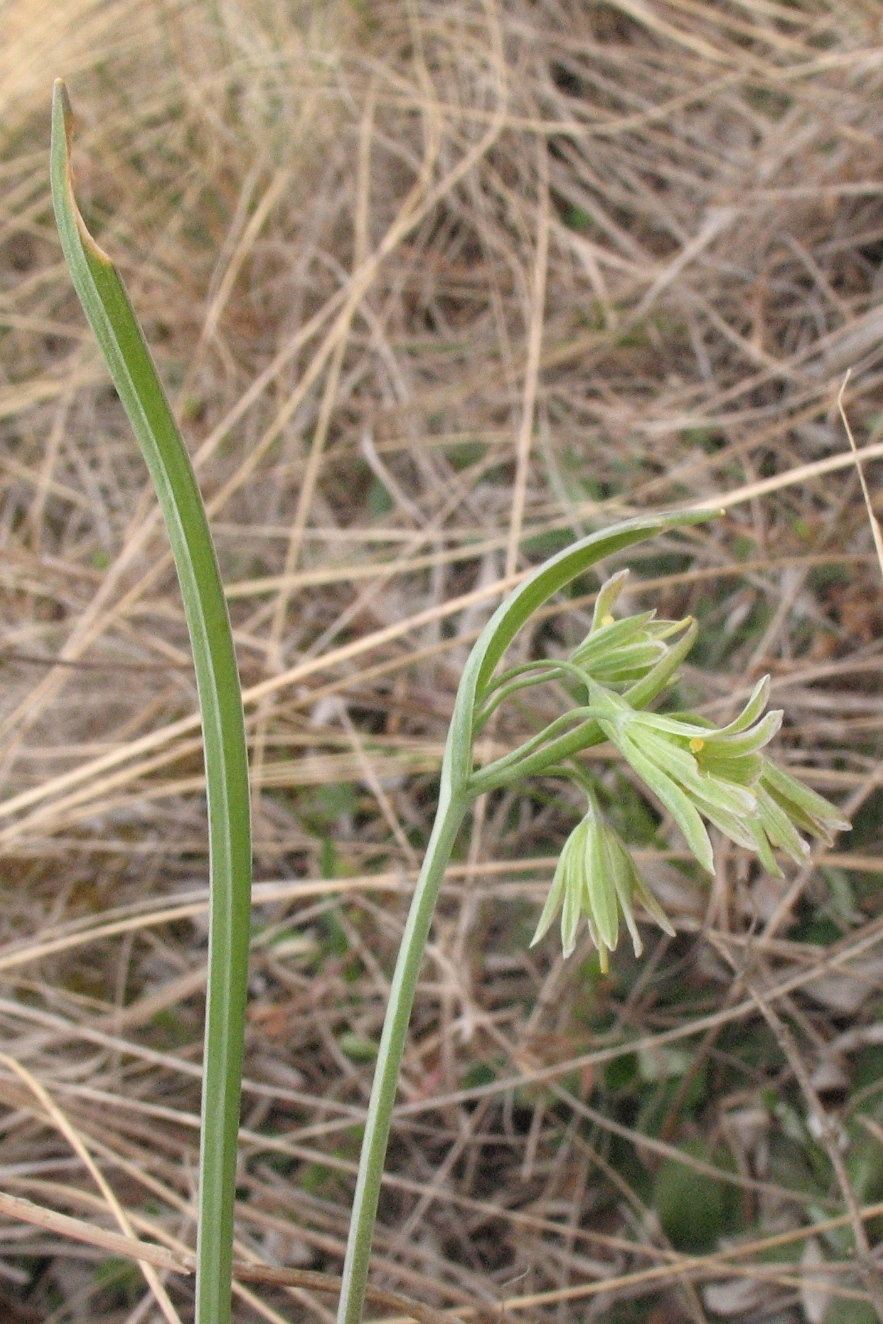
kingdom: Plantae
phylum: Tracheophyta
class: Liliopsida
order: Liliales
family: Liliaceae
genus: Gagea
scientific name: Gagea fragifera
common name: Lily
